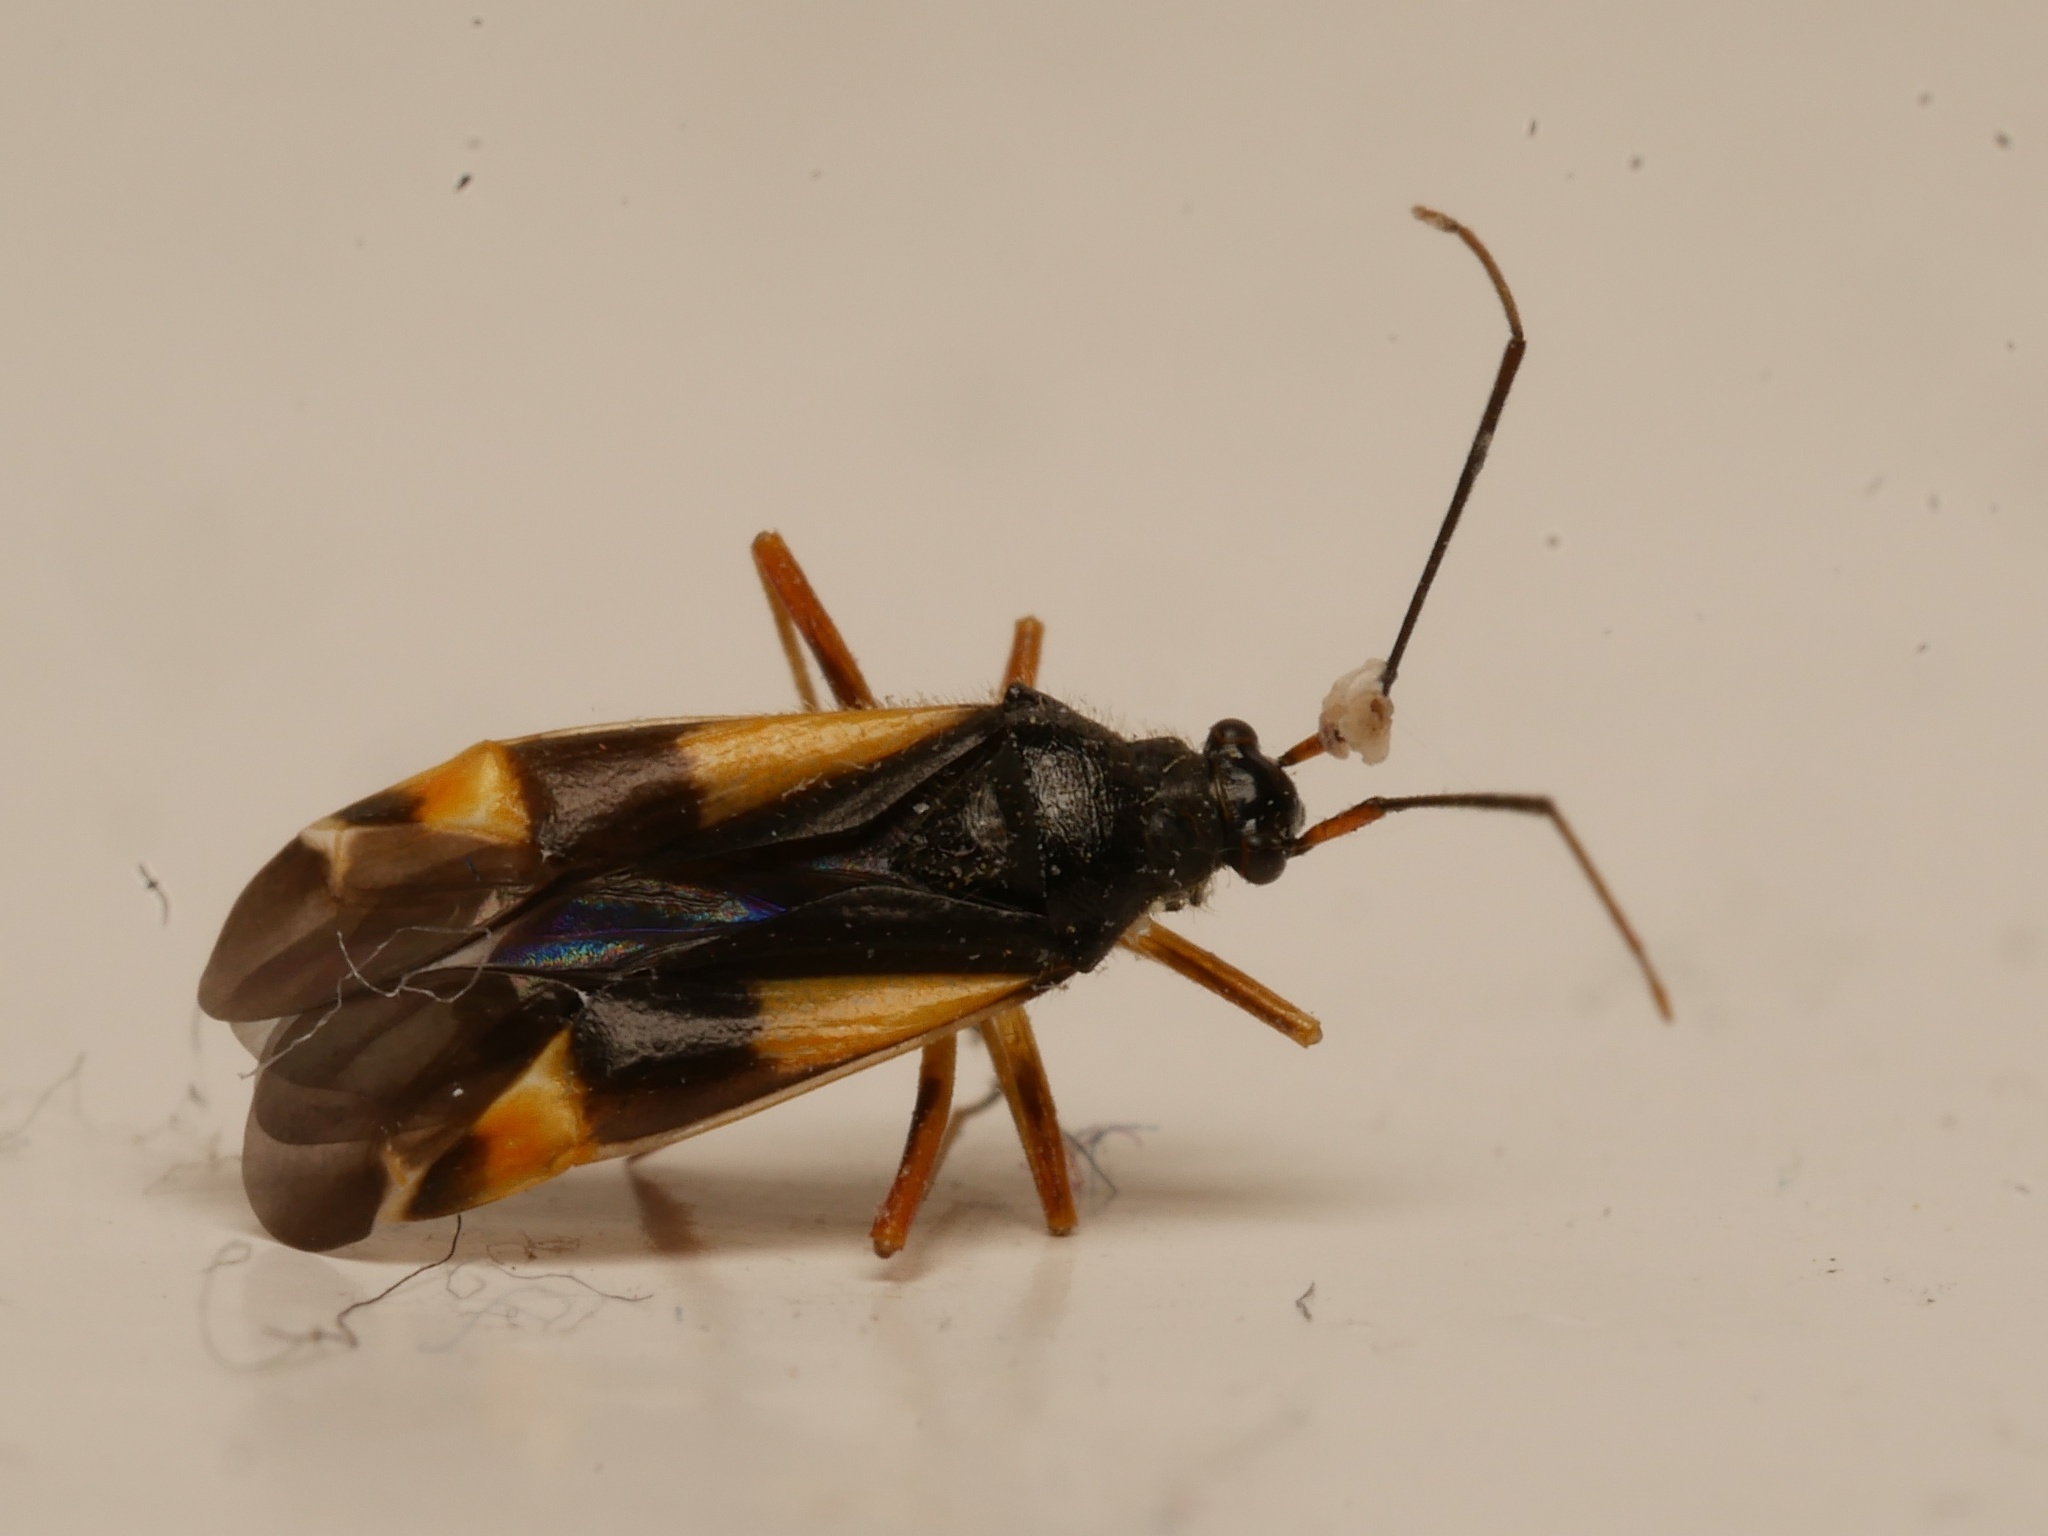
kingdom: Animalia
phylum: Arthropoda
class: Insecta
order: Hemiptera
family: Miridae
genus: Dryophilocoris
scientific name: Dryophilocoris flavoquadrimaculatus
